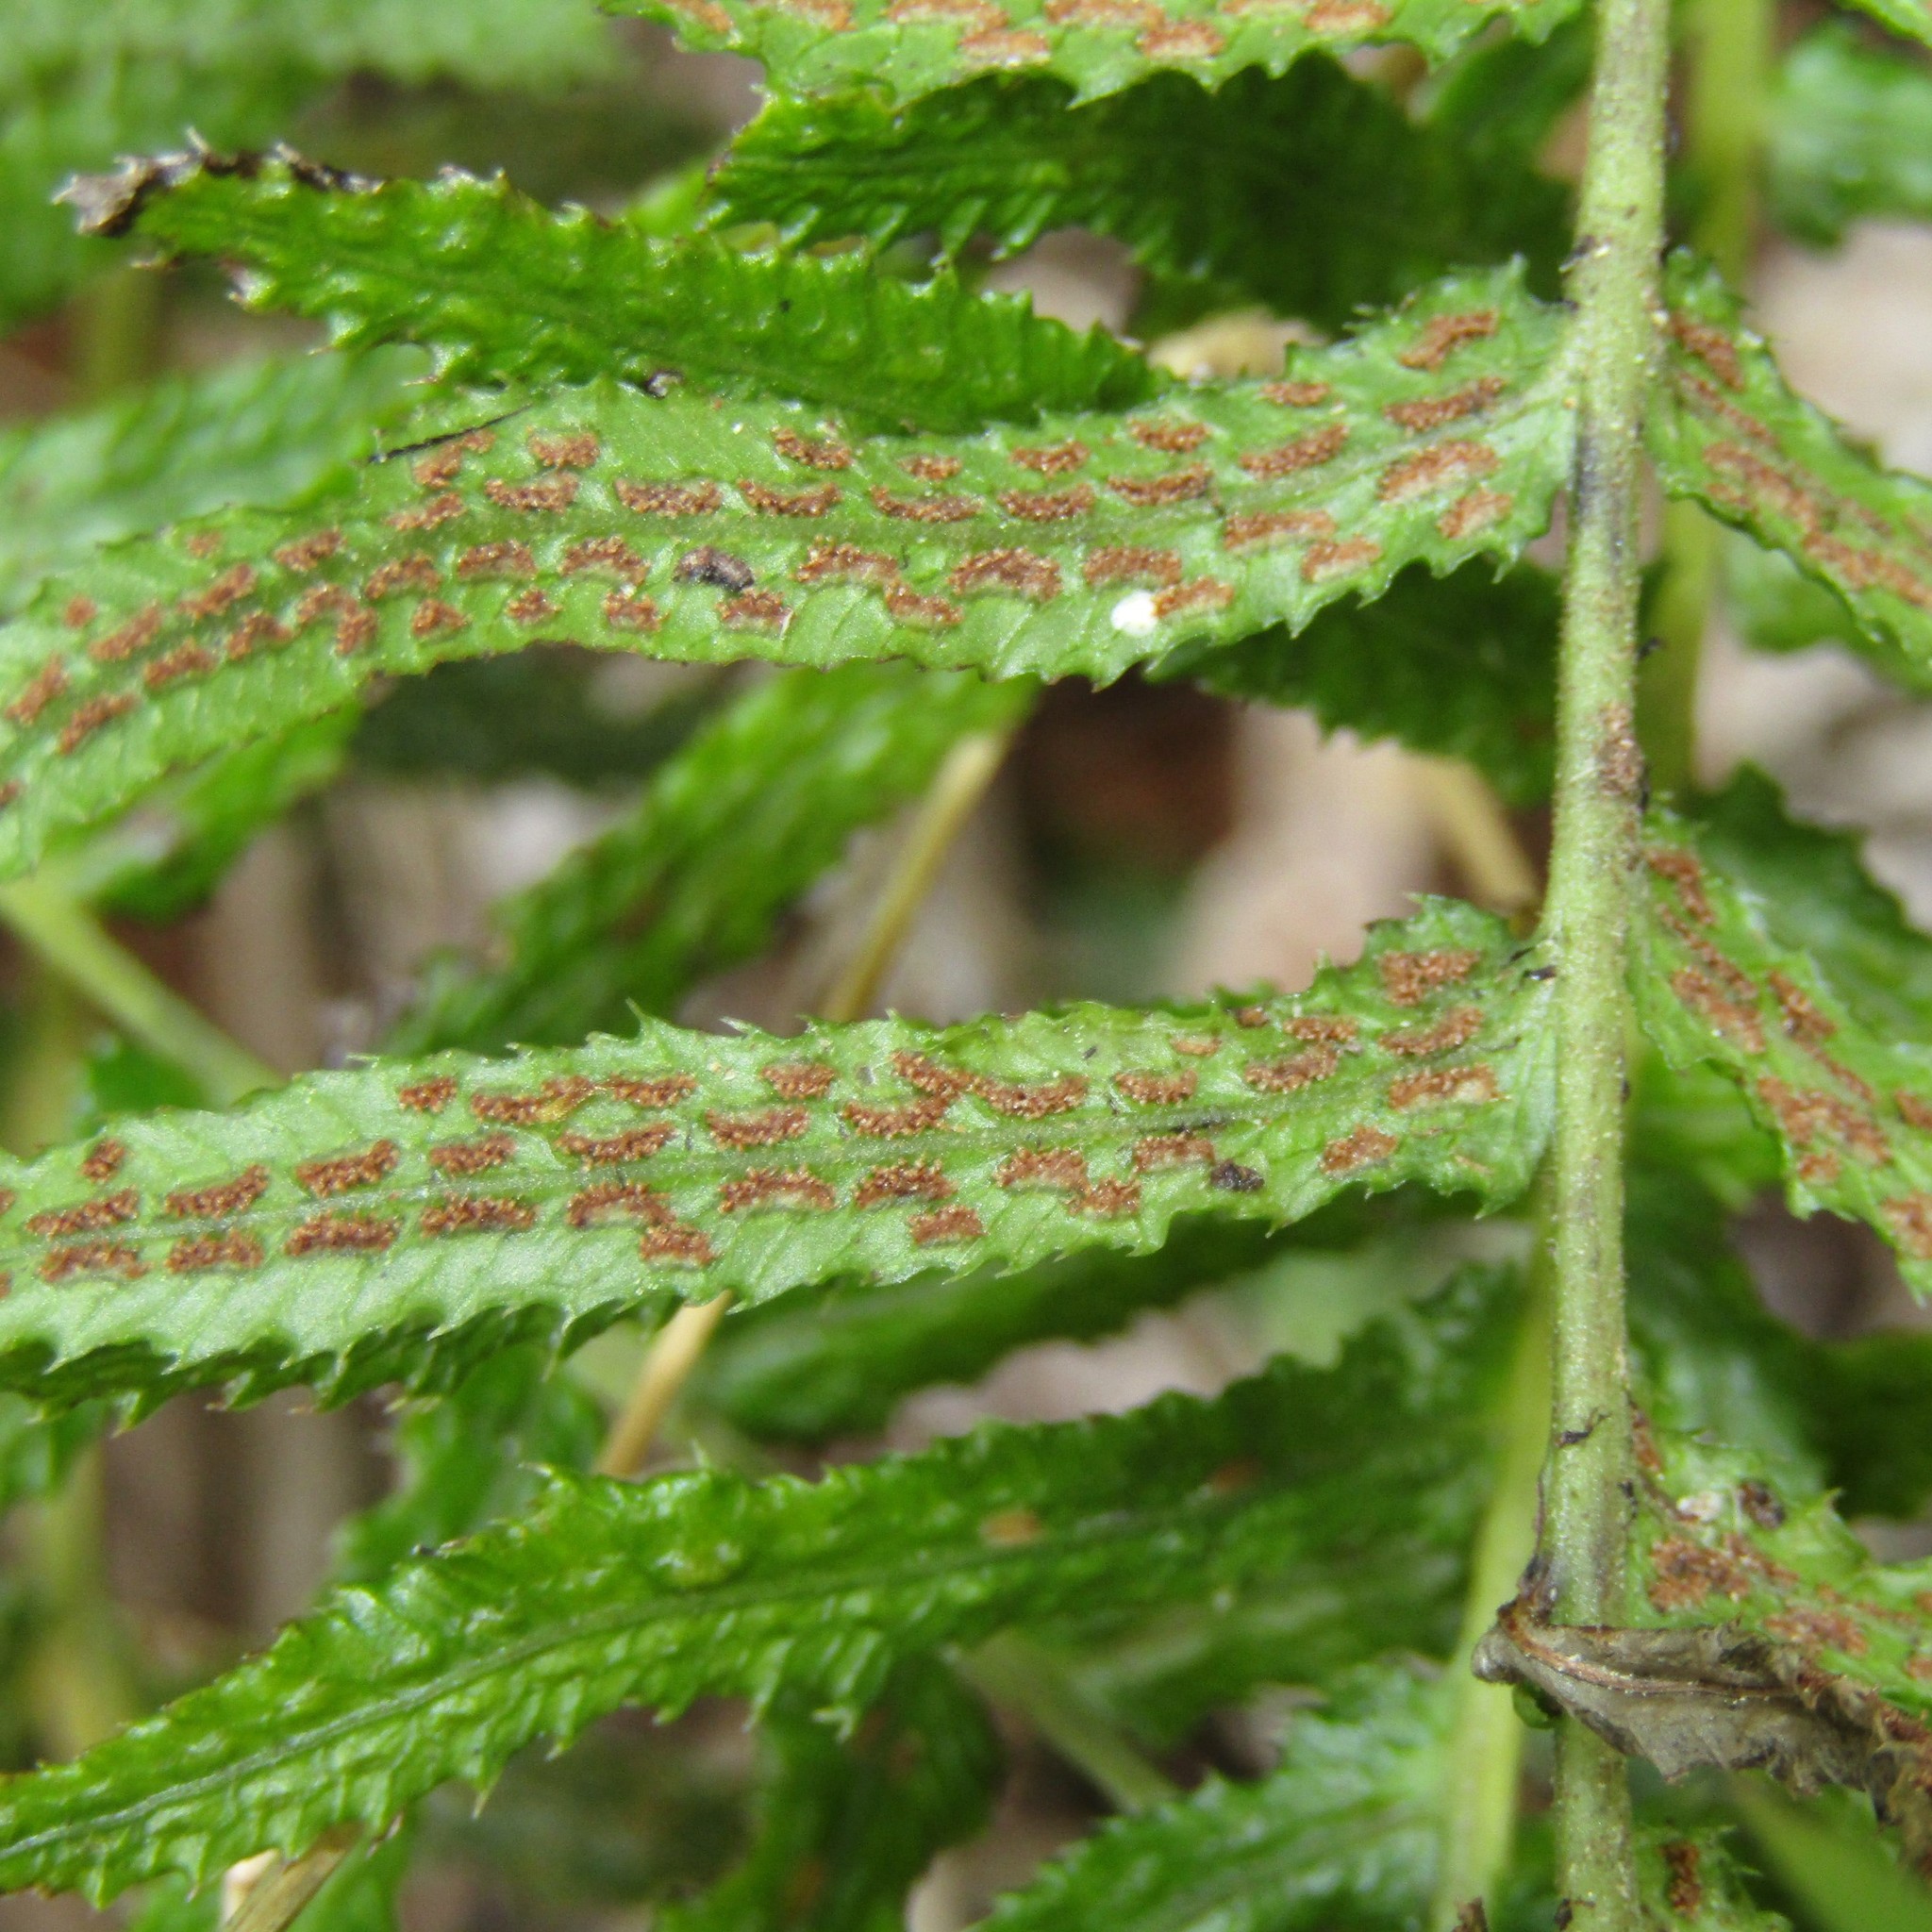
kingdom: Plantae
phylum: Tracheophyta
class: Polypodiopsida
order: Polypodiales
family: Blechnaceae
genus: Doodia
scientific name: Doodia australis
